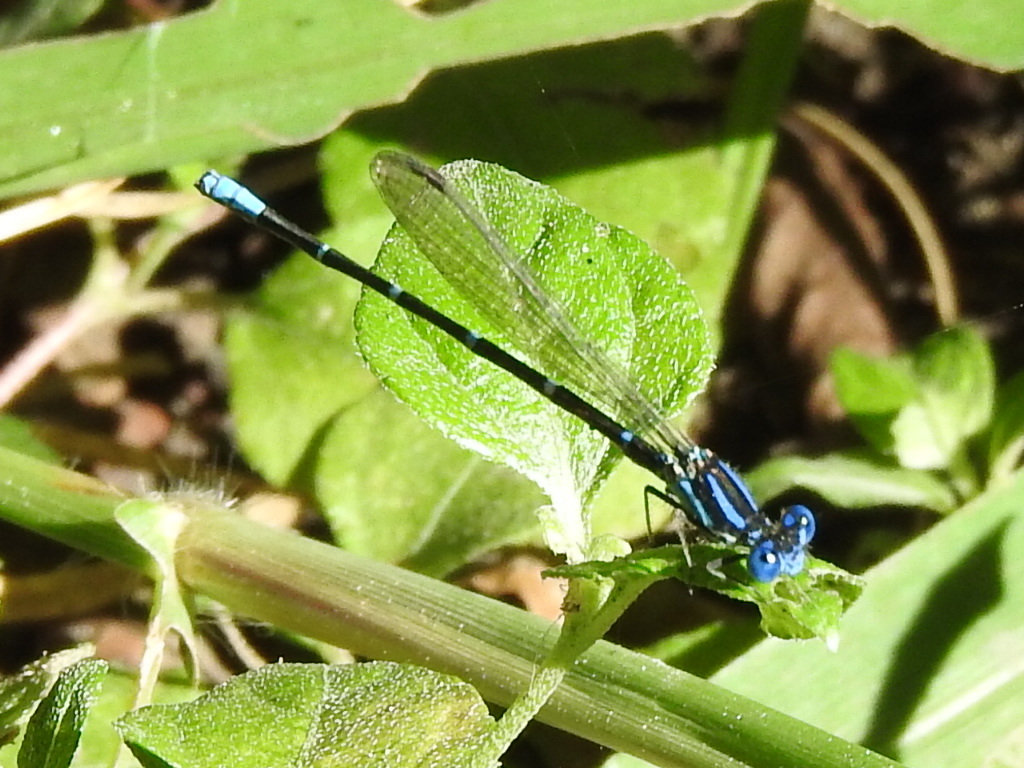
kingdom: Animalia
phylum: Arthropoda
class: Insecta
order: Odonata
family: Coenagrionidae
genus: Argia
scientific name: Argia sedula
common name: Blue-ringed dancer
